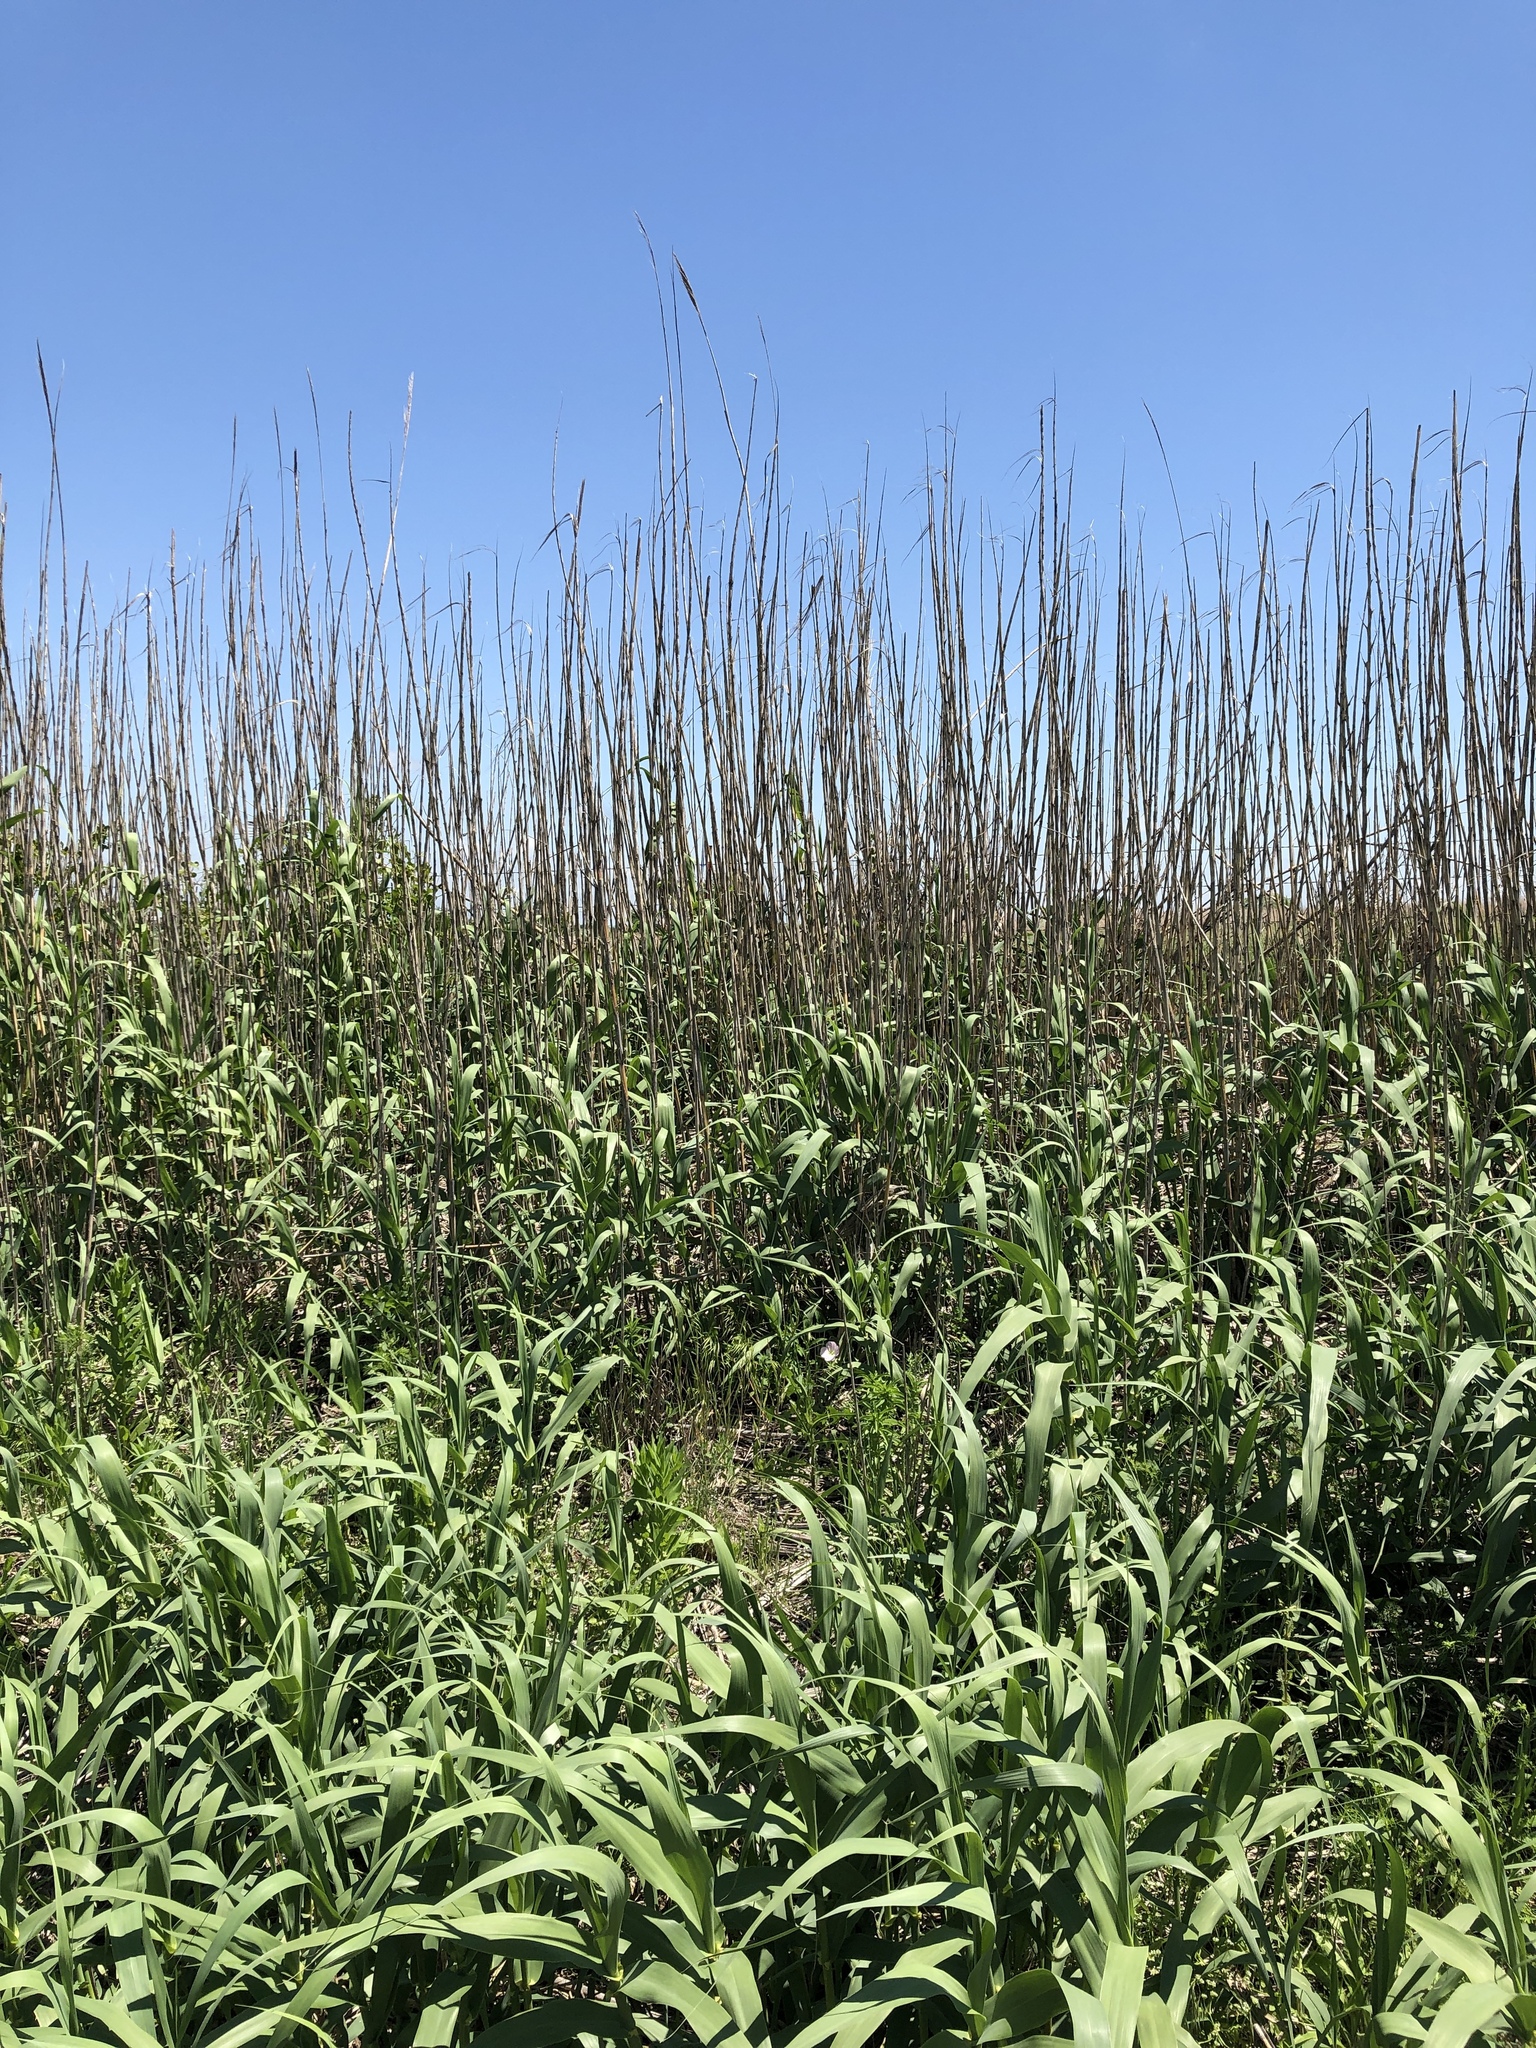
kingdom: Plantae
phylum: Tracheophyta
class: Liliopsida
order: Poales
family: Poaceae
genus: Arundo
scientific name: Arundo donax
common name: Giant reed
